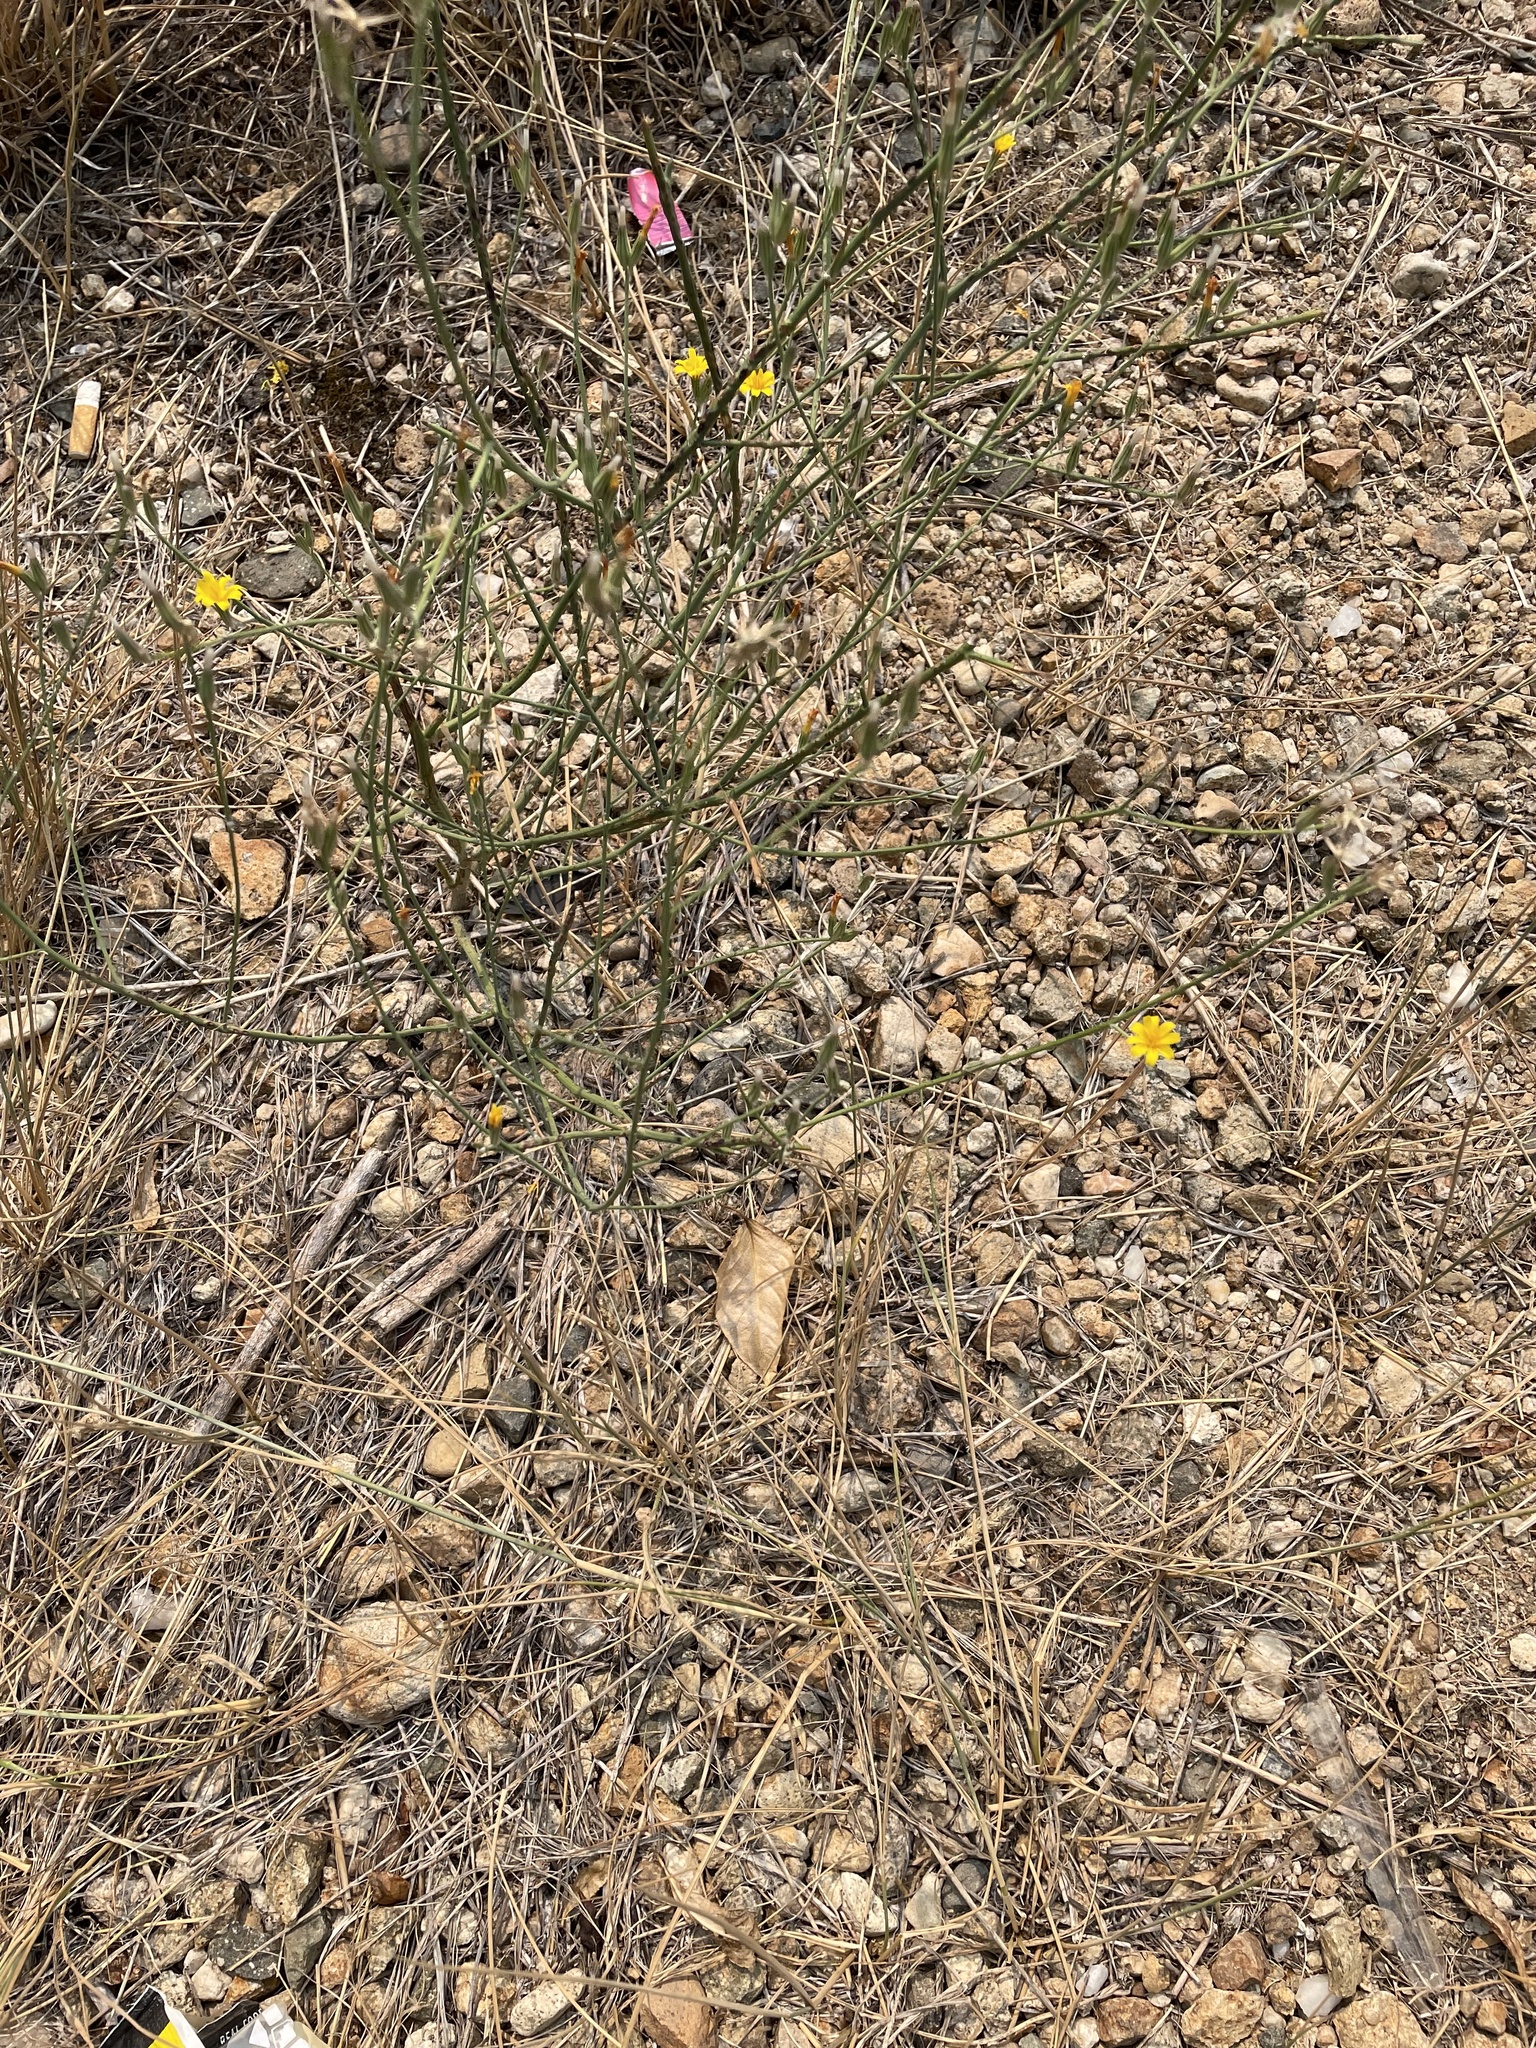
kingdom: Plantae
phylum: Tracheophyta
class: Magnoliopsida
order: Asterales
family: Asteraceae
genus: Chondrilla
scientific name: Chondrilla juncea
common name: Skeleton weed
